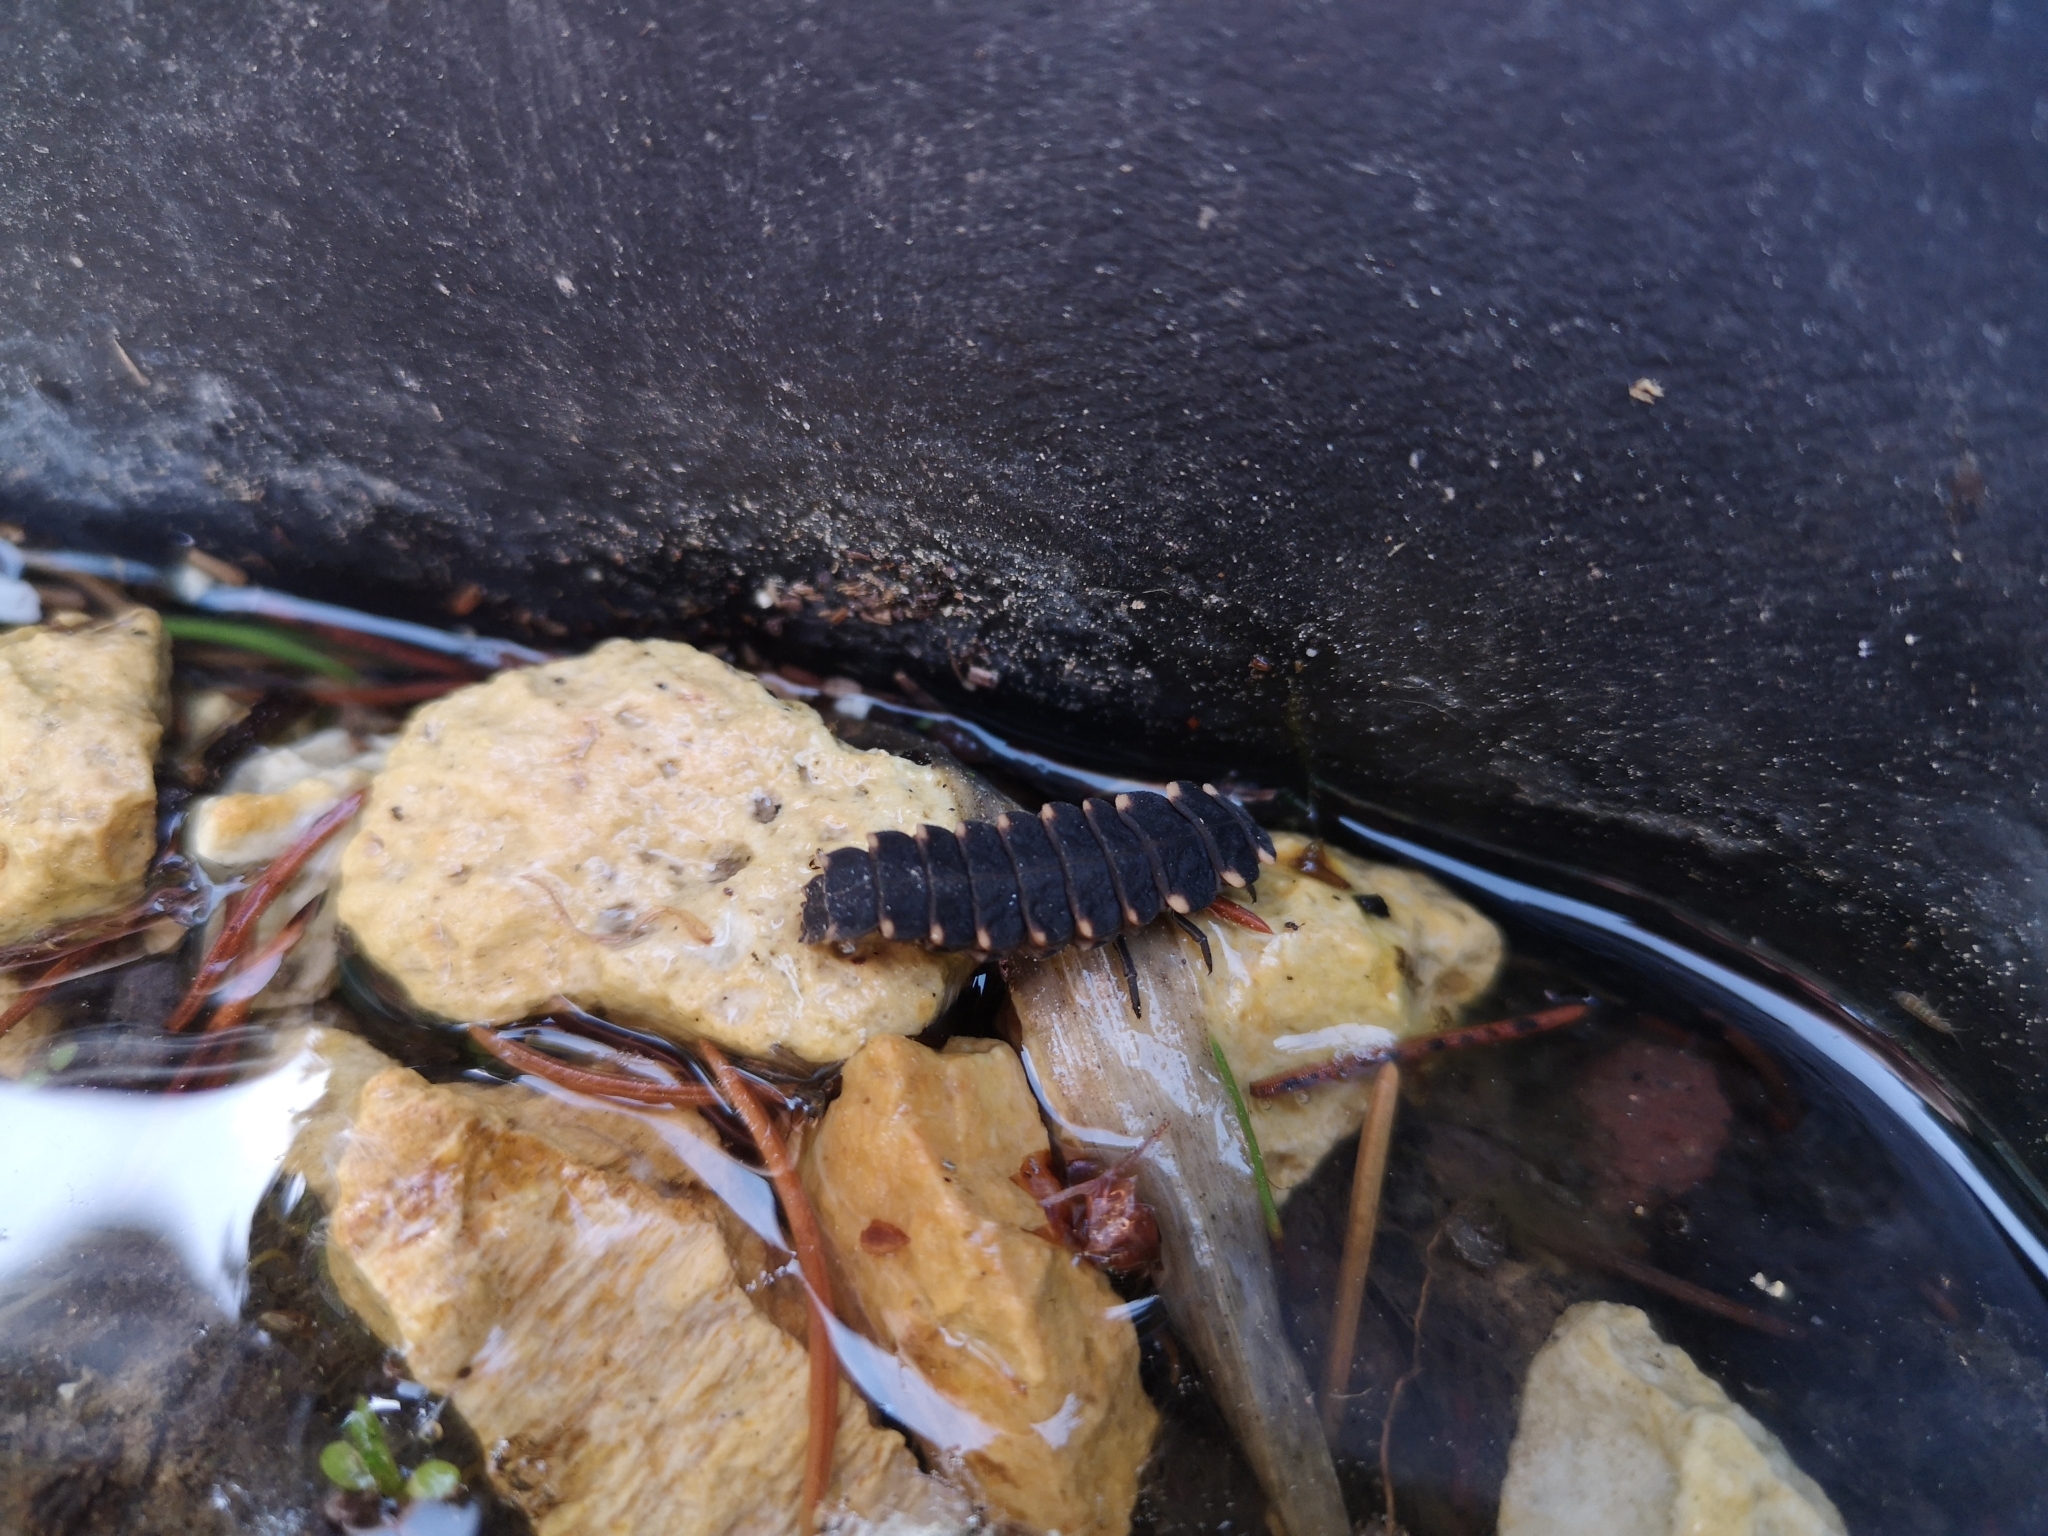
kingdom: Animalia
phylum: Arthropoda
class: Insecta
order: Coleoptera
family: Lampyridae
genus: Lampyris
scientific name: Lampyris noctiluca
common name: Glow-worm
